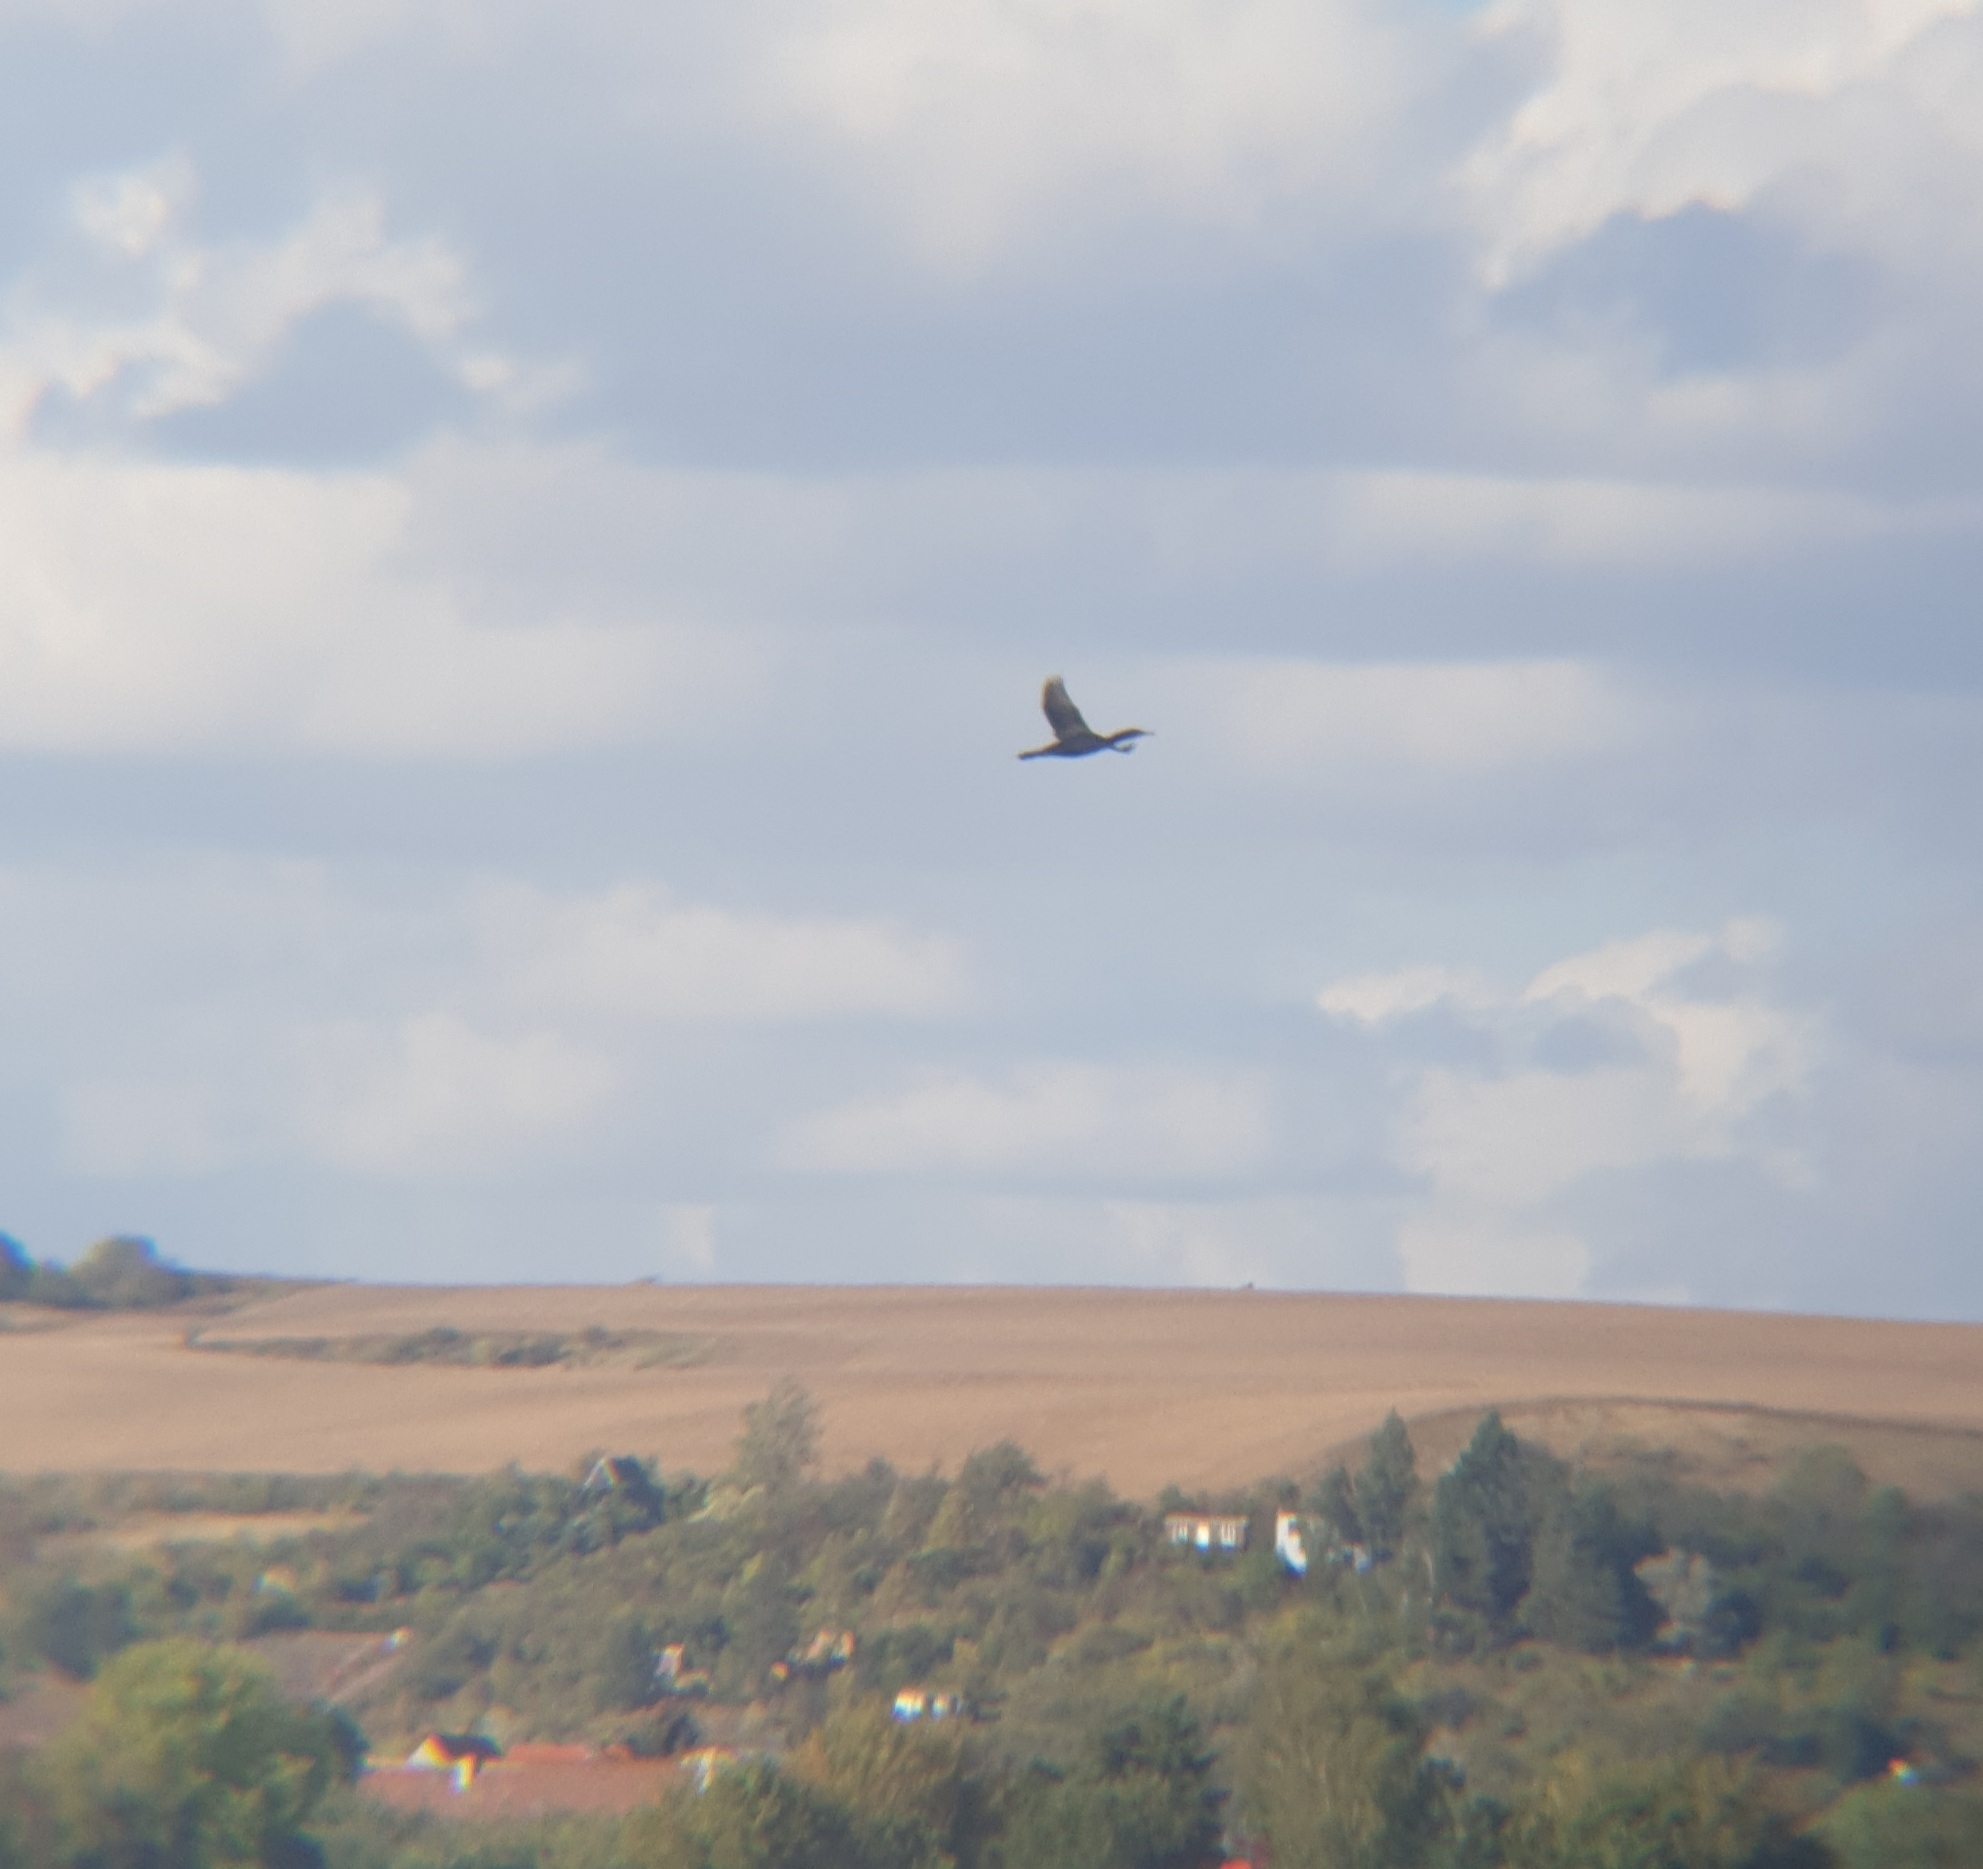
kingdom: Animalia
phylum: Chordata
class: Aves
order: Suliformes
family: Phalacrocoracidae
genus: Phalacrocorax
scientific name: Phalacrocorax carbo
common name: Great cormorant
